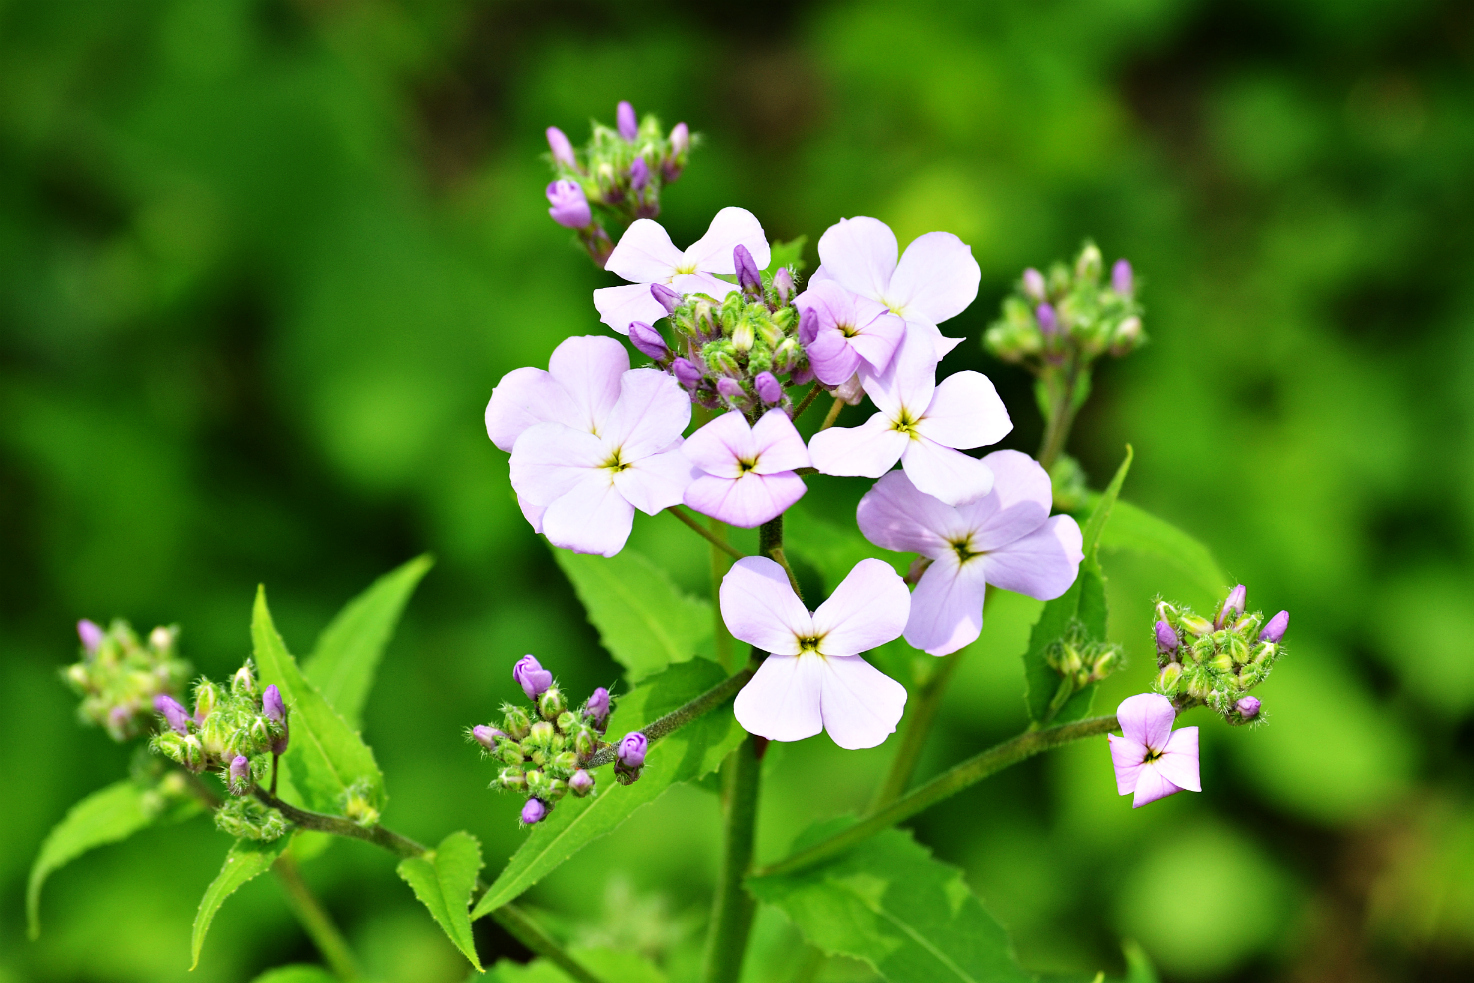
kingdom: Plantae
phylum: Tracheophyta
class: Magnoliopsida
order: Brassicales
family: Brassicaceae
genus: Hesperis
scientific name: Hesperis matronalis
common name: Dame's-violet
